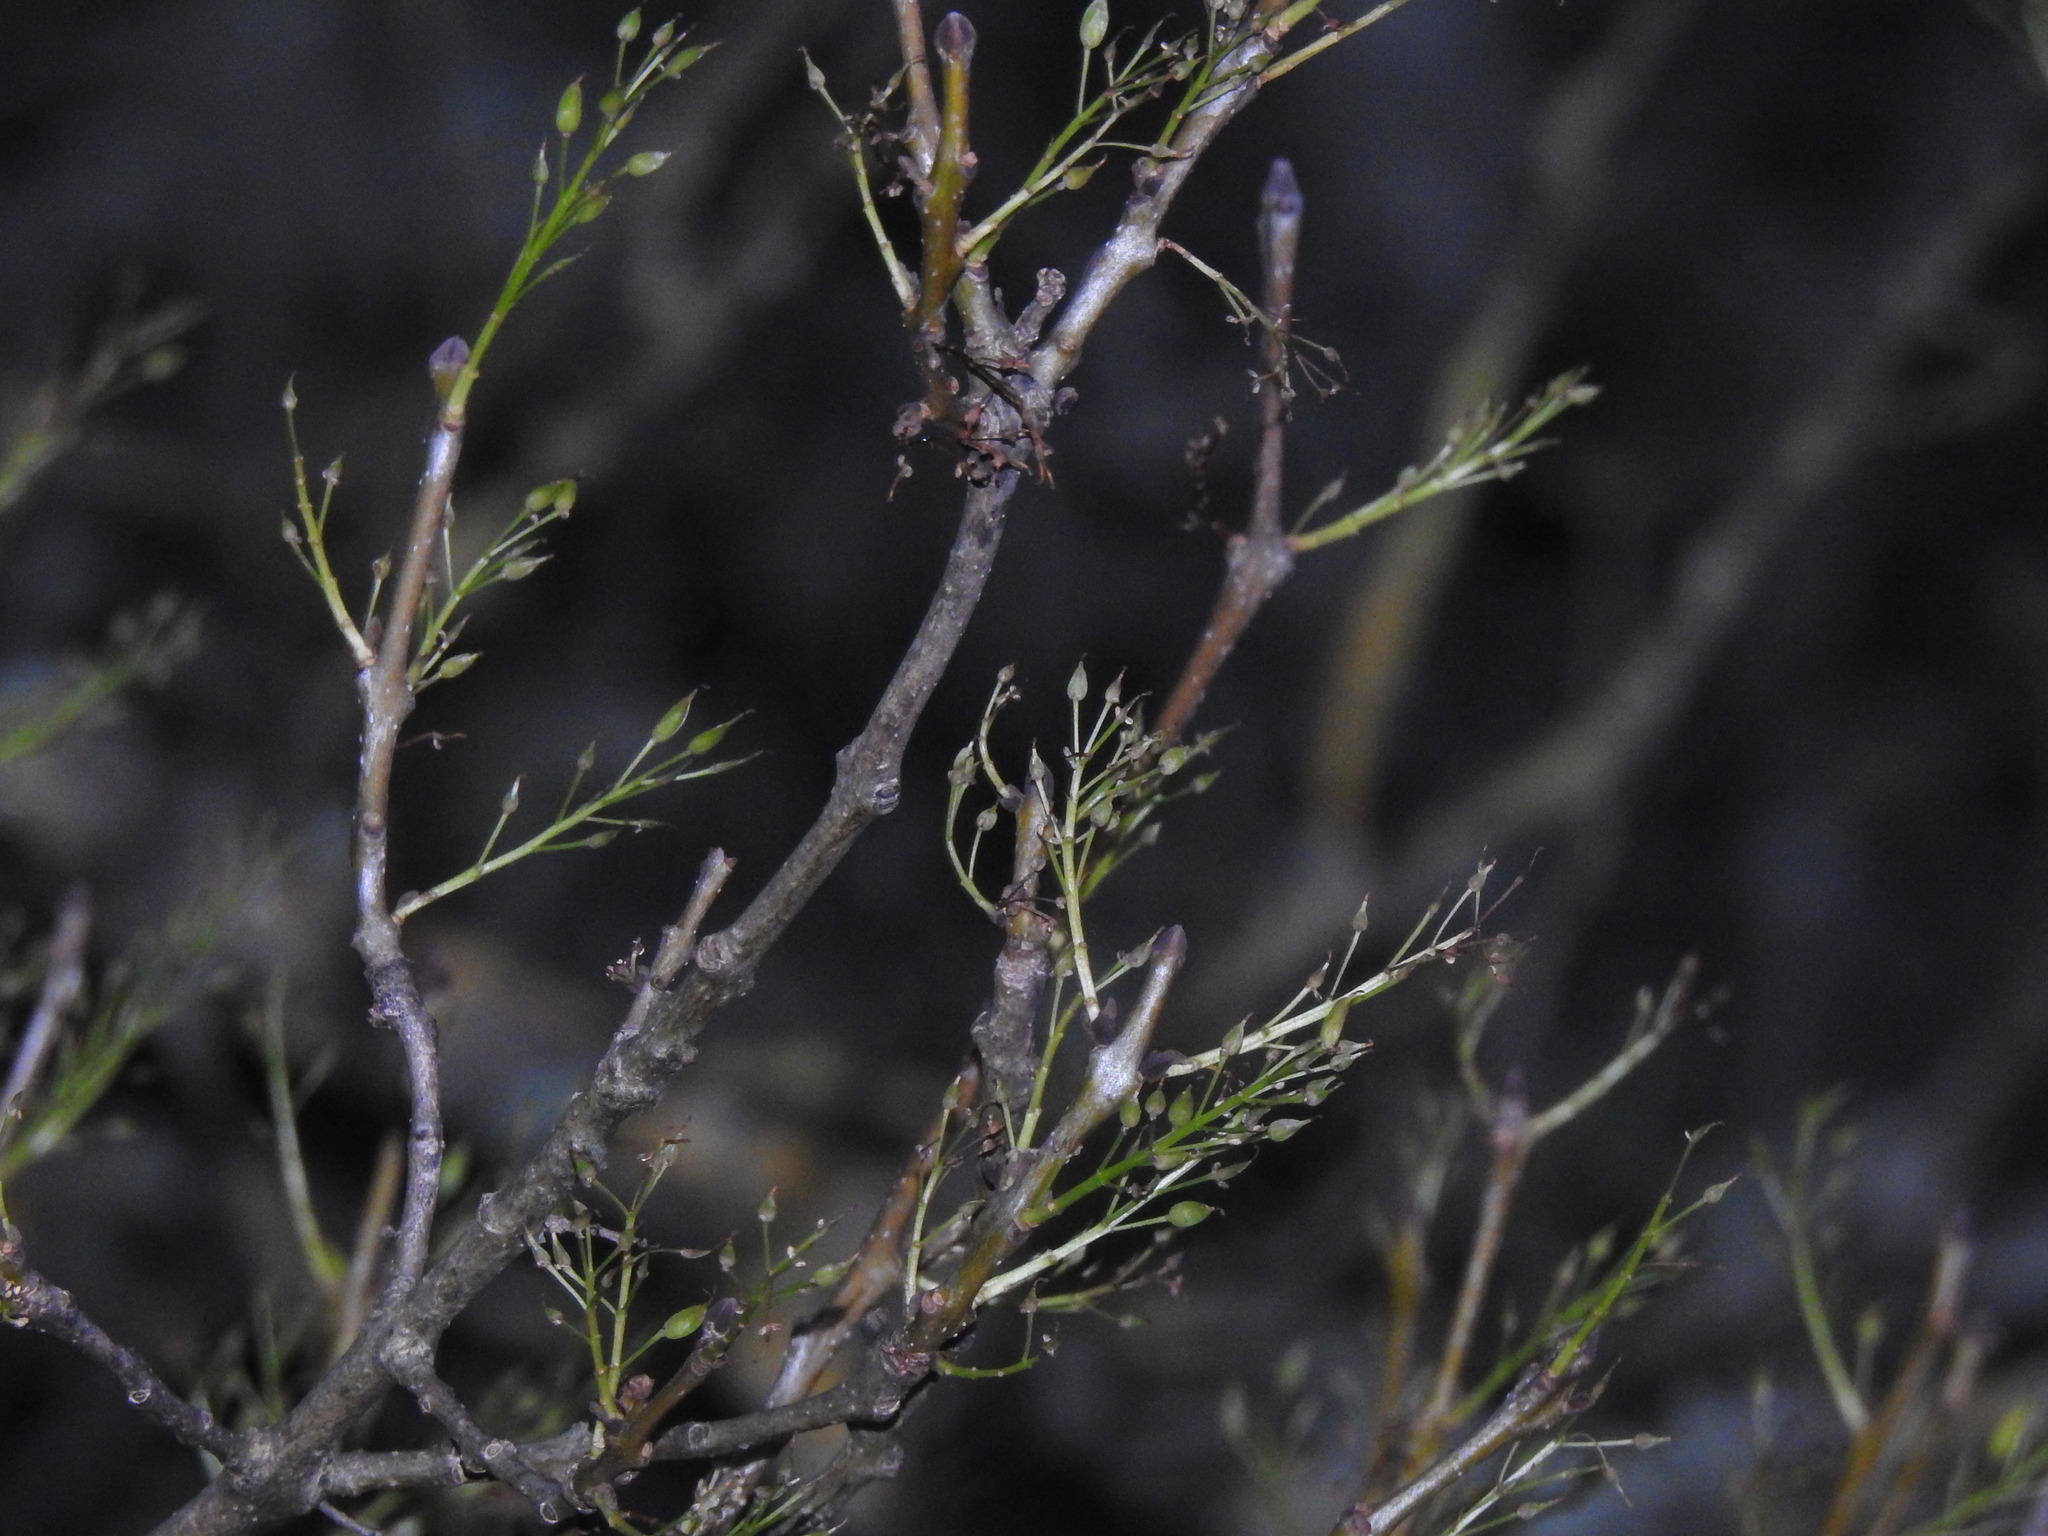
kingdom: Plantae
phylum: Tracheophyta
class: Magnoliopsida
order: Lamiales
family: Oleaceae
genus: Fraxinus
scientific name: Fraxinus angustifolia
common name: Narrow-leafed ash
